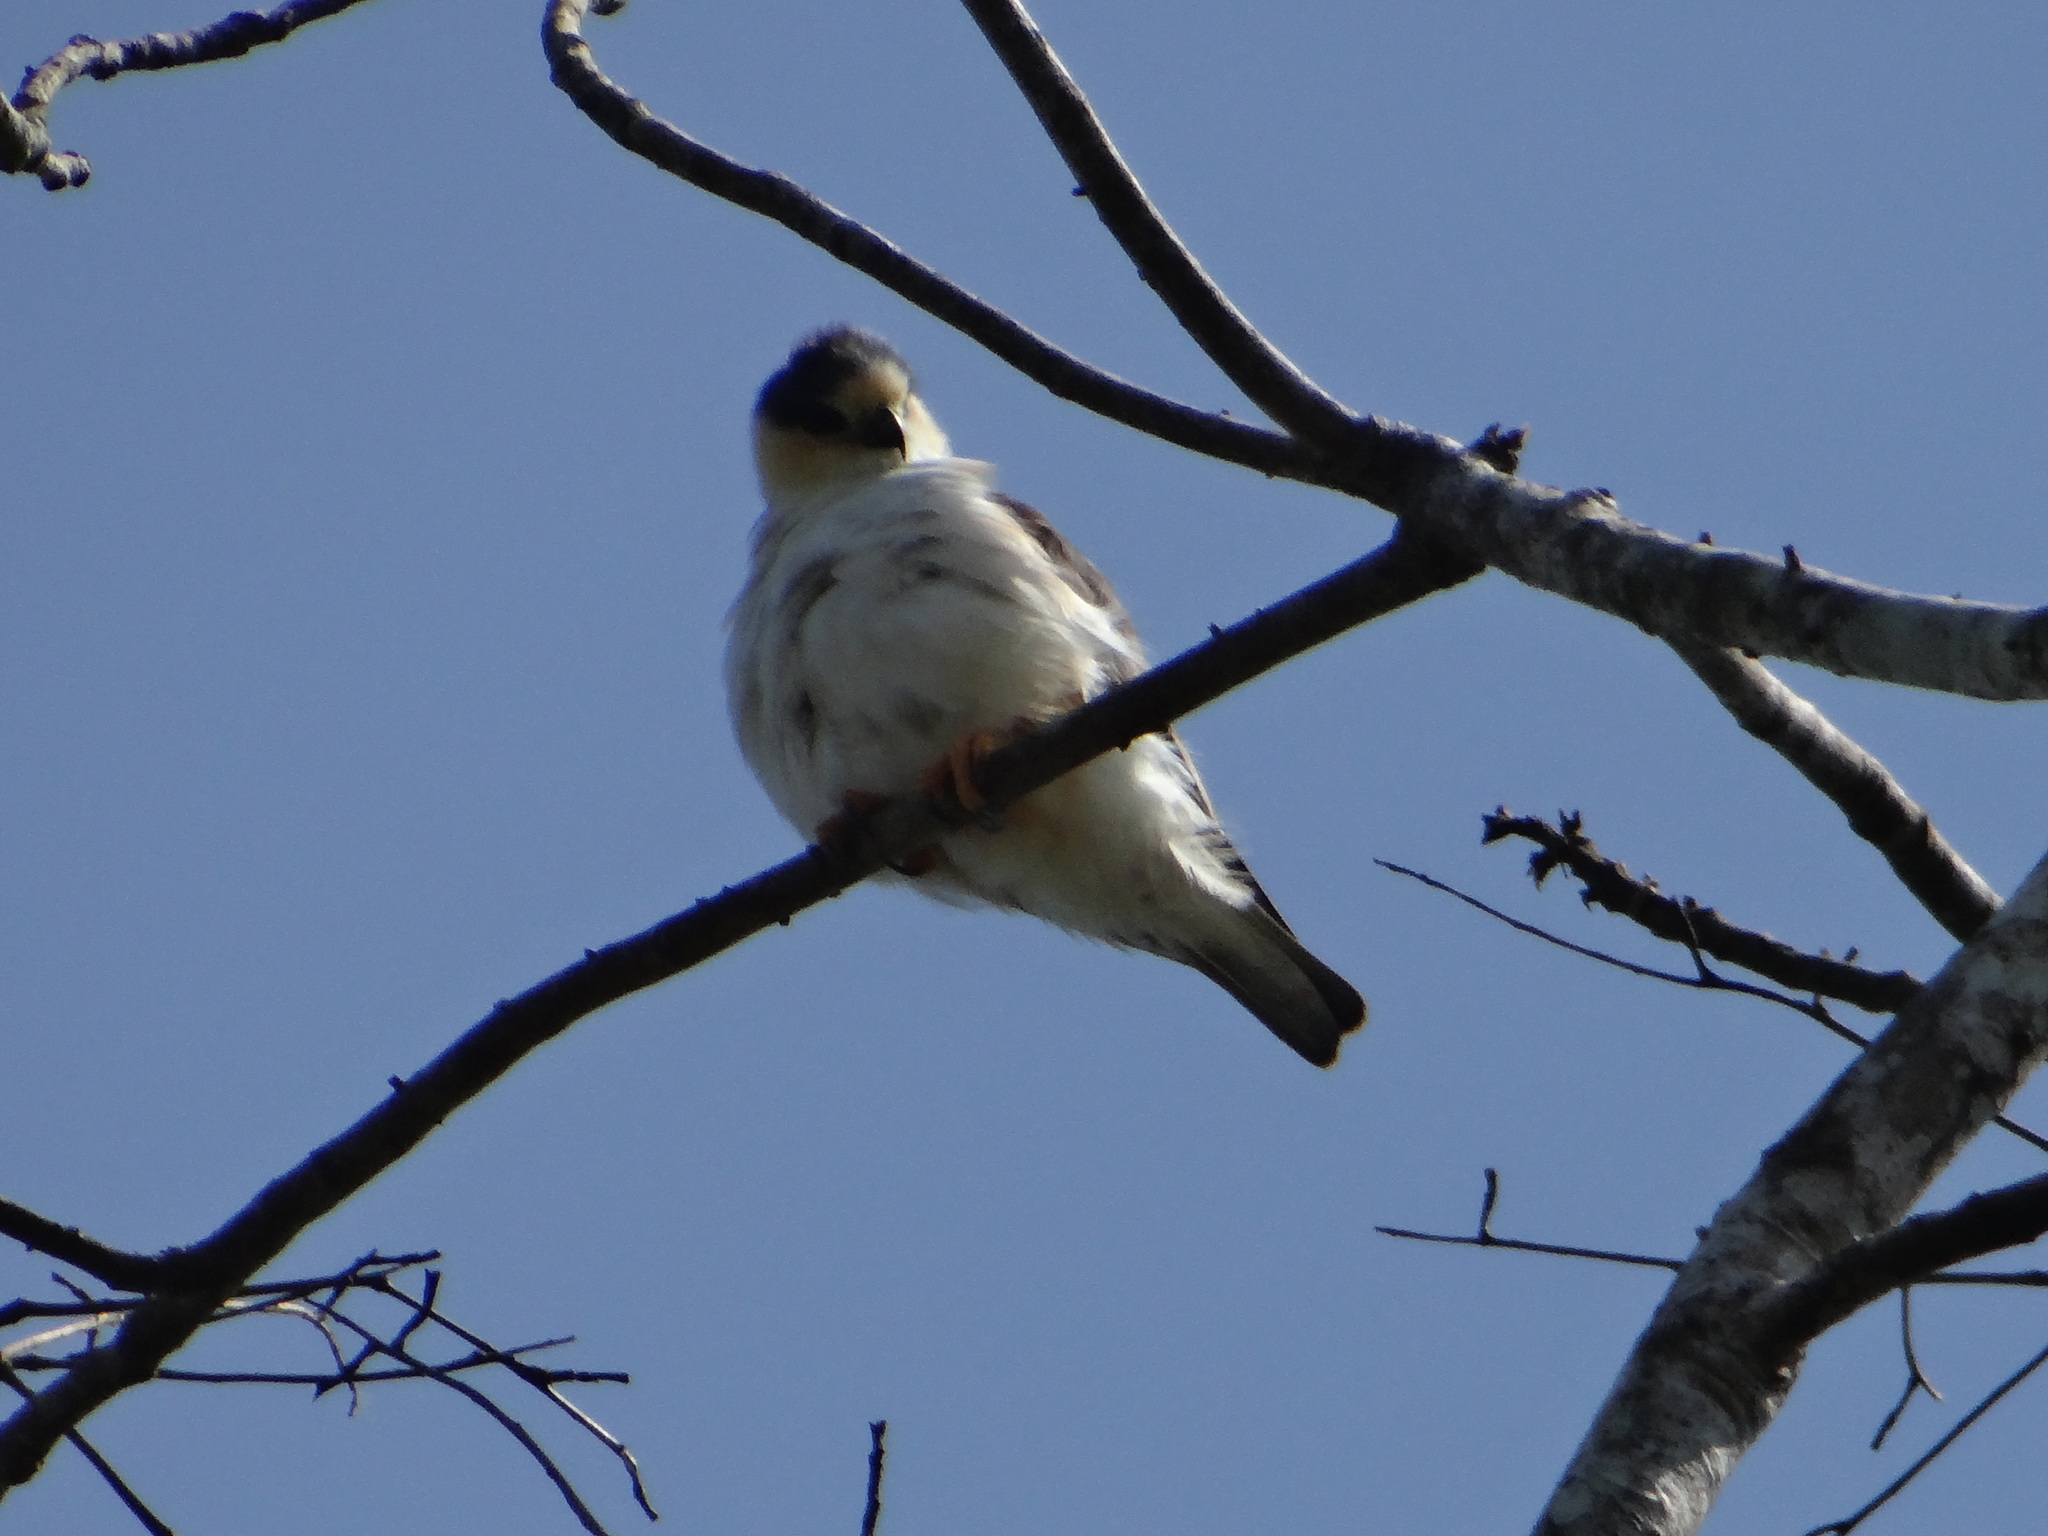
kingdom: Animalia
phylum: Chordata
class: Aves
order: Accipitriformes
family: Accipitridae
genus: Gampsonyx
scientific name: Gampsonyx swainsonii
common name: Pearl kite
